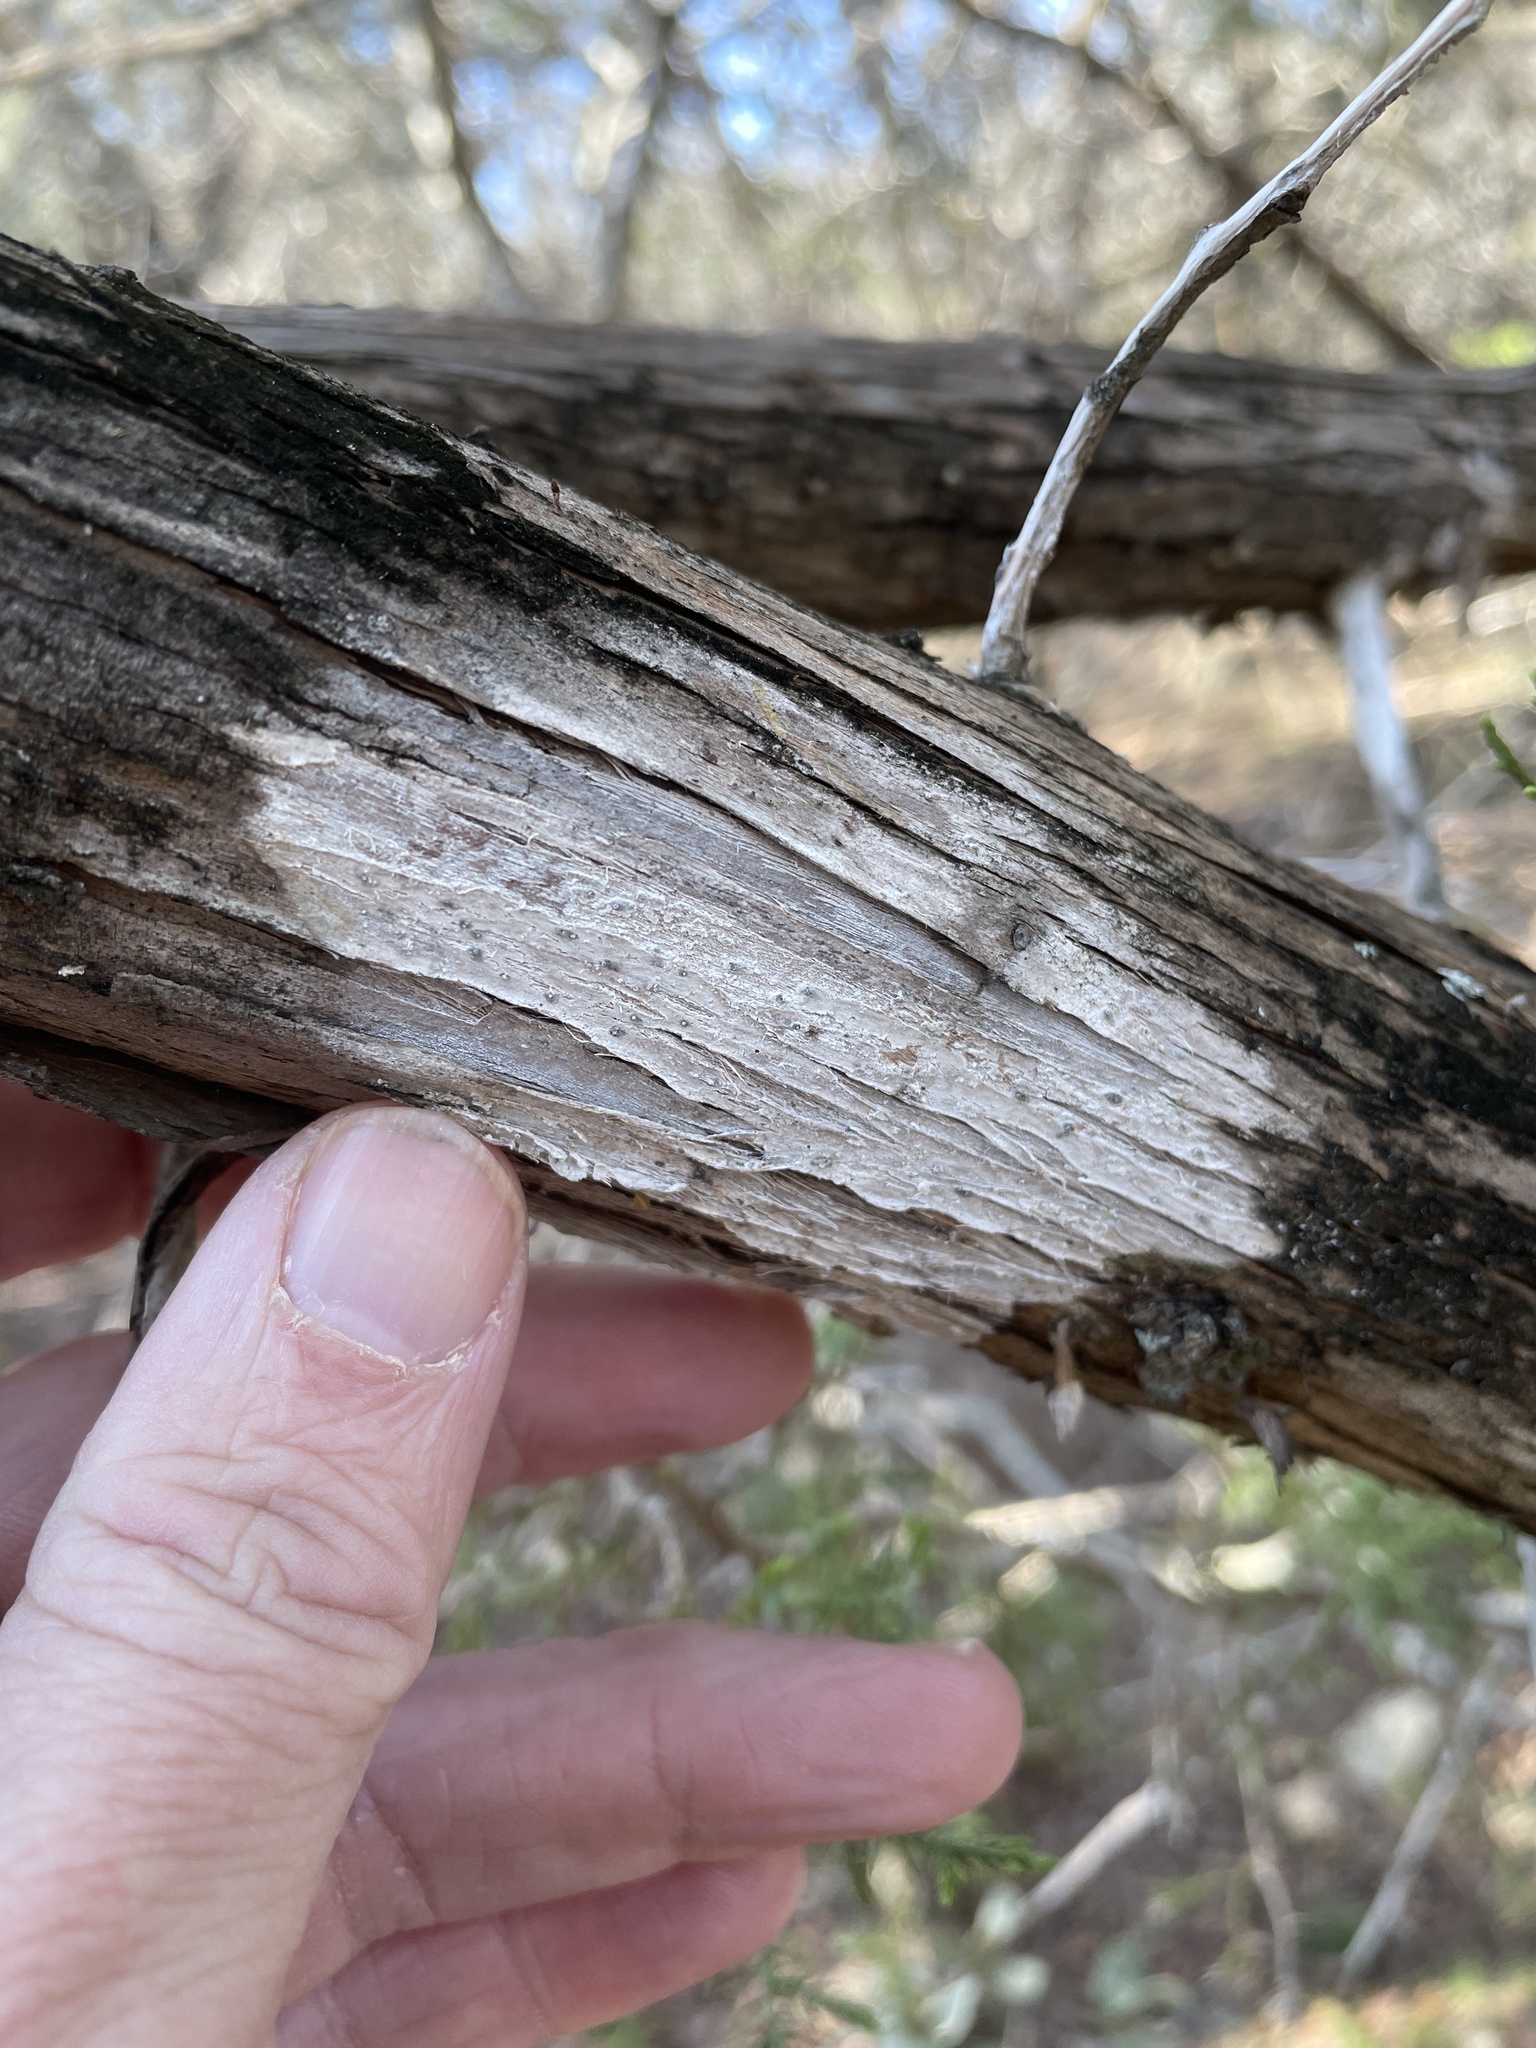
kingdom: Fungi
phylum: Ascomycota
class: Lecanoromycetes
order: Ostropales
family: Stictidaceae
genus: Robergea
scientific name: Robergea
